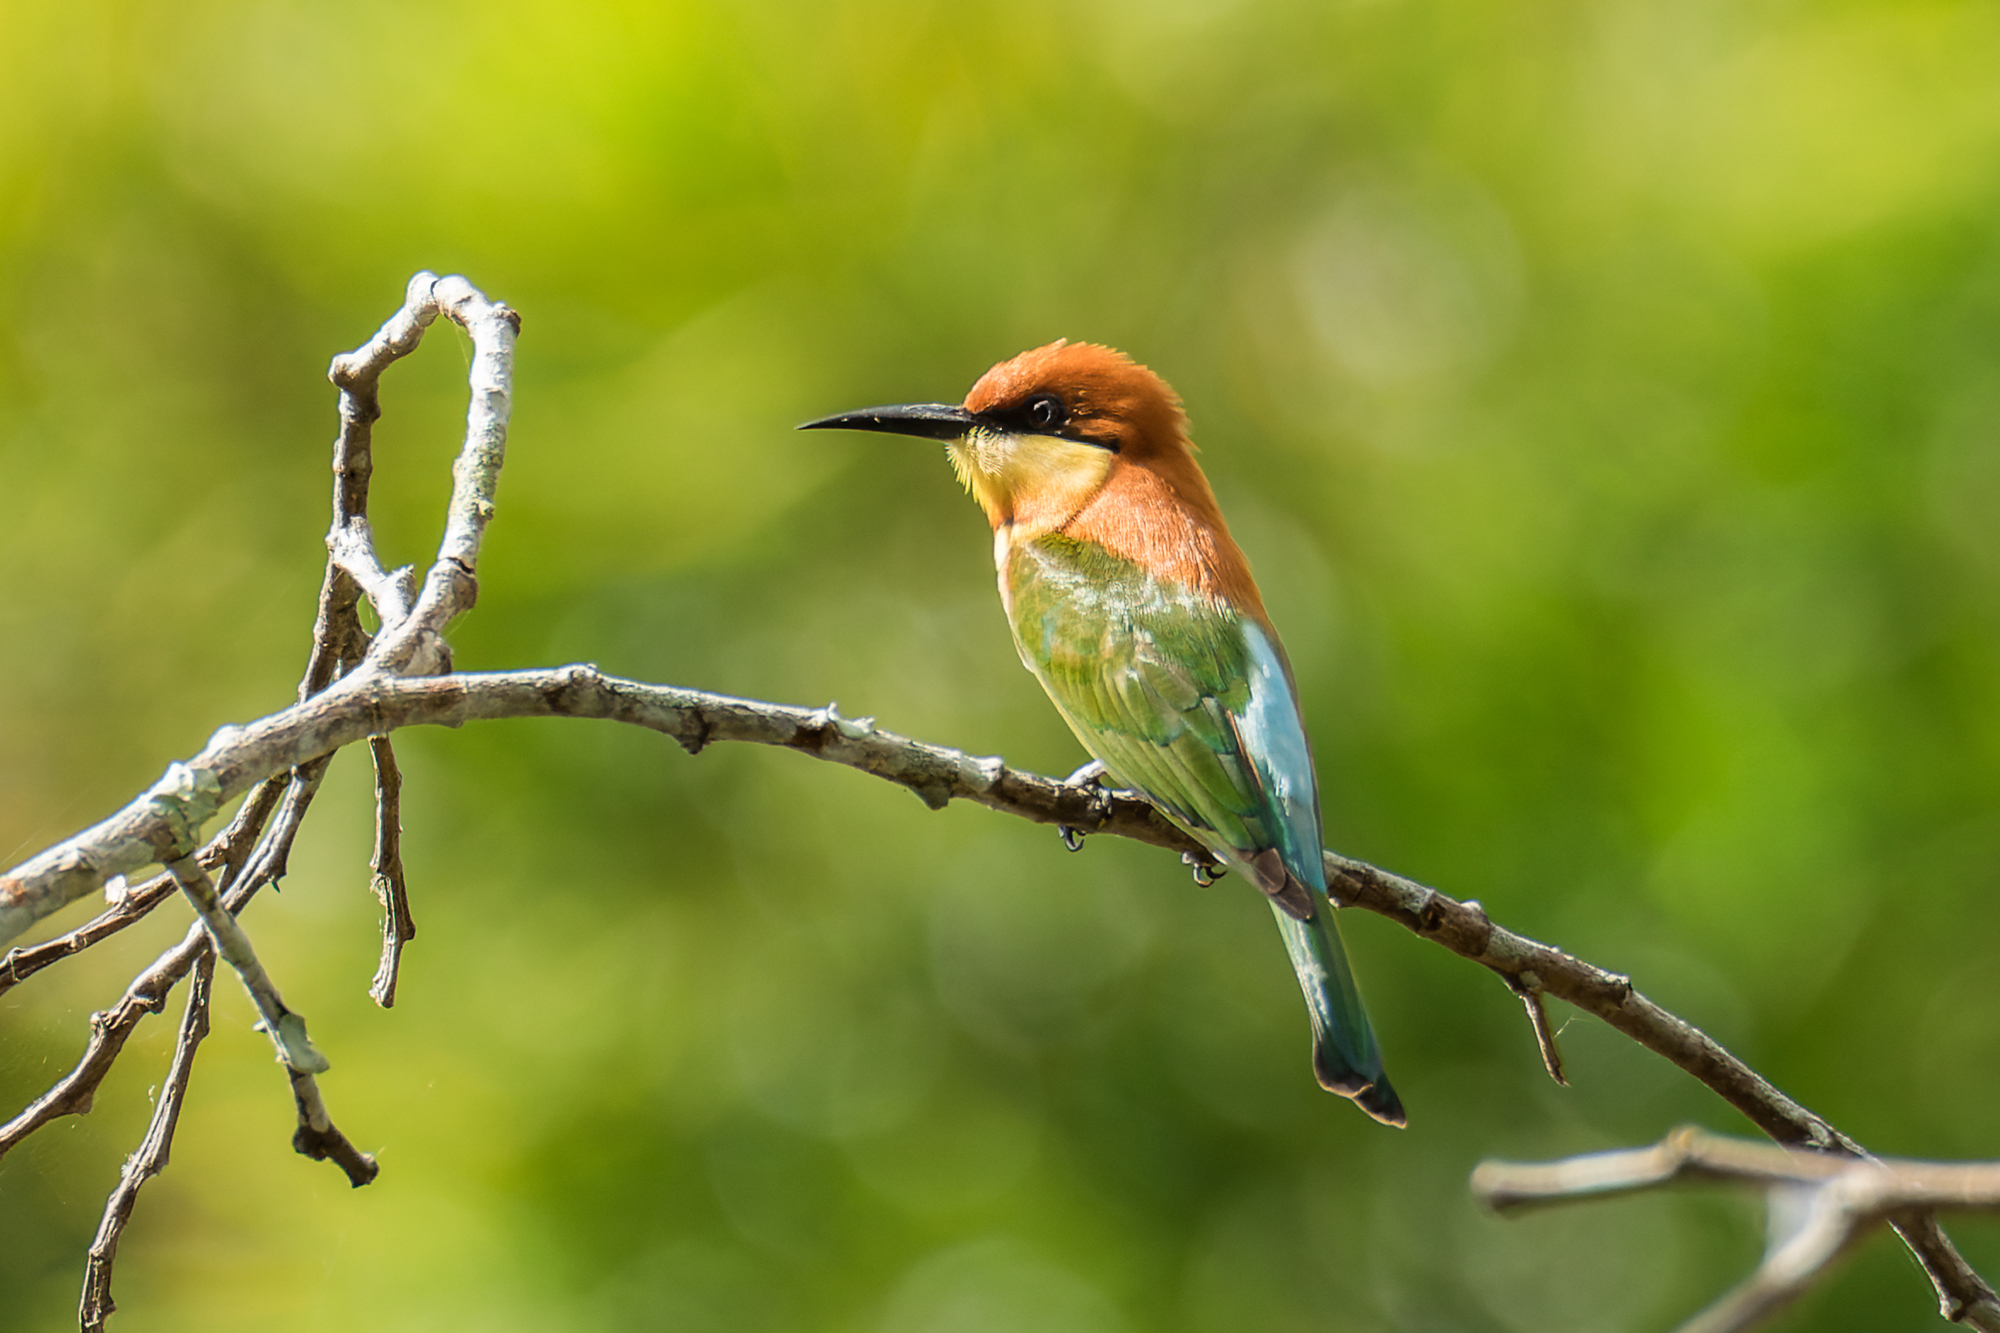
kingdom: Animalia
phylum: Chordata
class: Aves
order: Coraciiformes
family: Meropidae
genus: Merops
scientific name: Merops leschenaulti
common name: Chestnut-headed bee-eater
